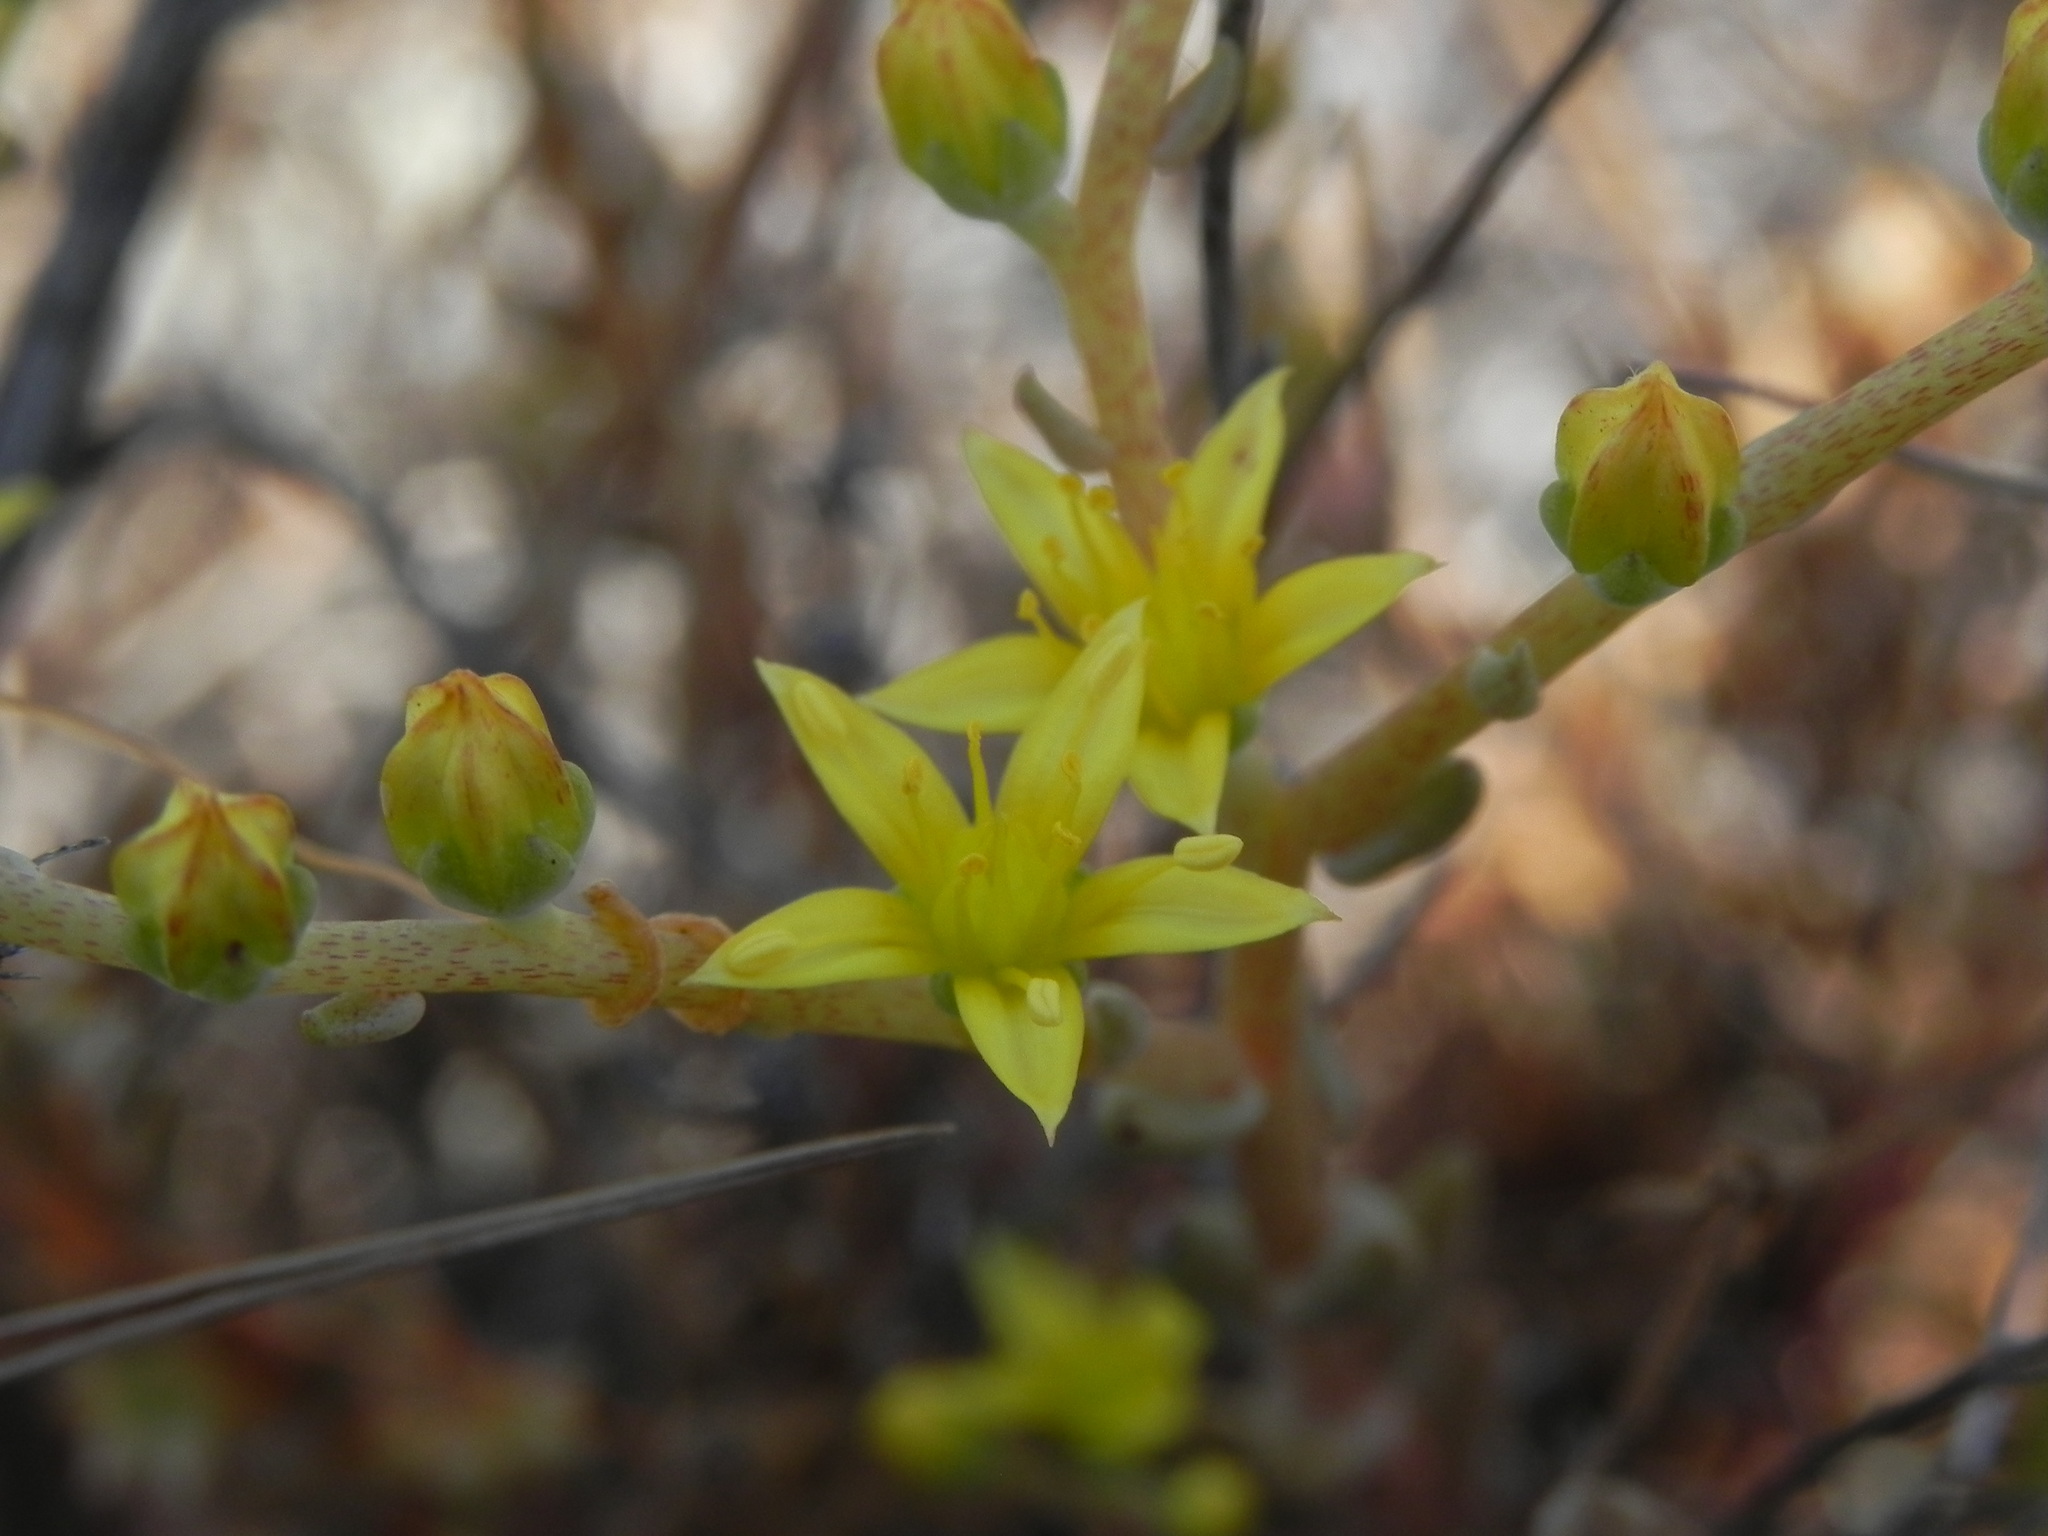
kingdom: Plantae
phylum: Tracheophyta
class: Magnoliopsida
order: Saxifragales
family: Crassulaceae
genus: Dudleya
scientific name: Dudleya variegata
